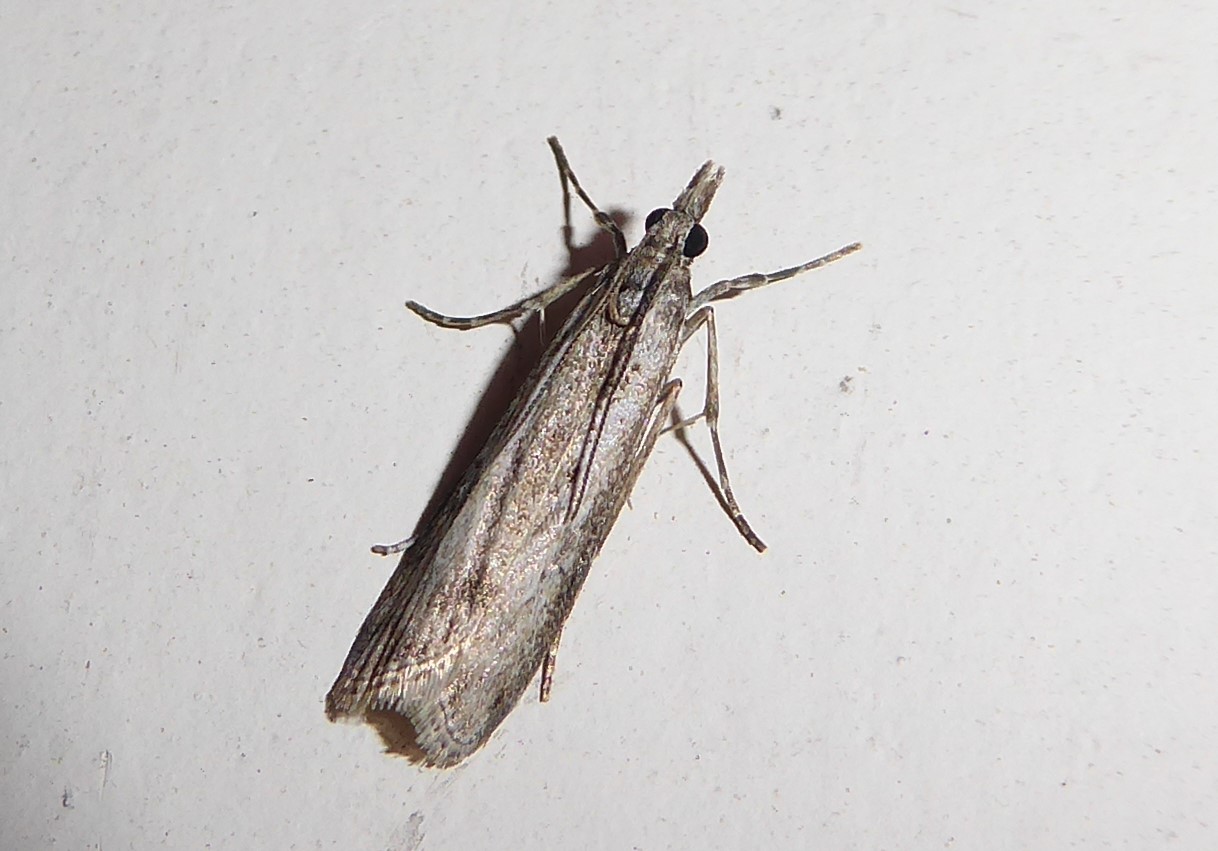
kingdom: Animalia
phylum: Arthropoda
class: Insecta
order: Lepidoptera
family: Crambidae
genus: Eudonia
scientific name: Eudonia leptalea
